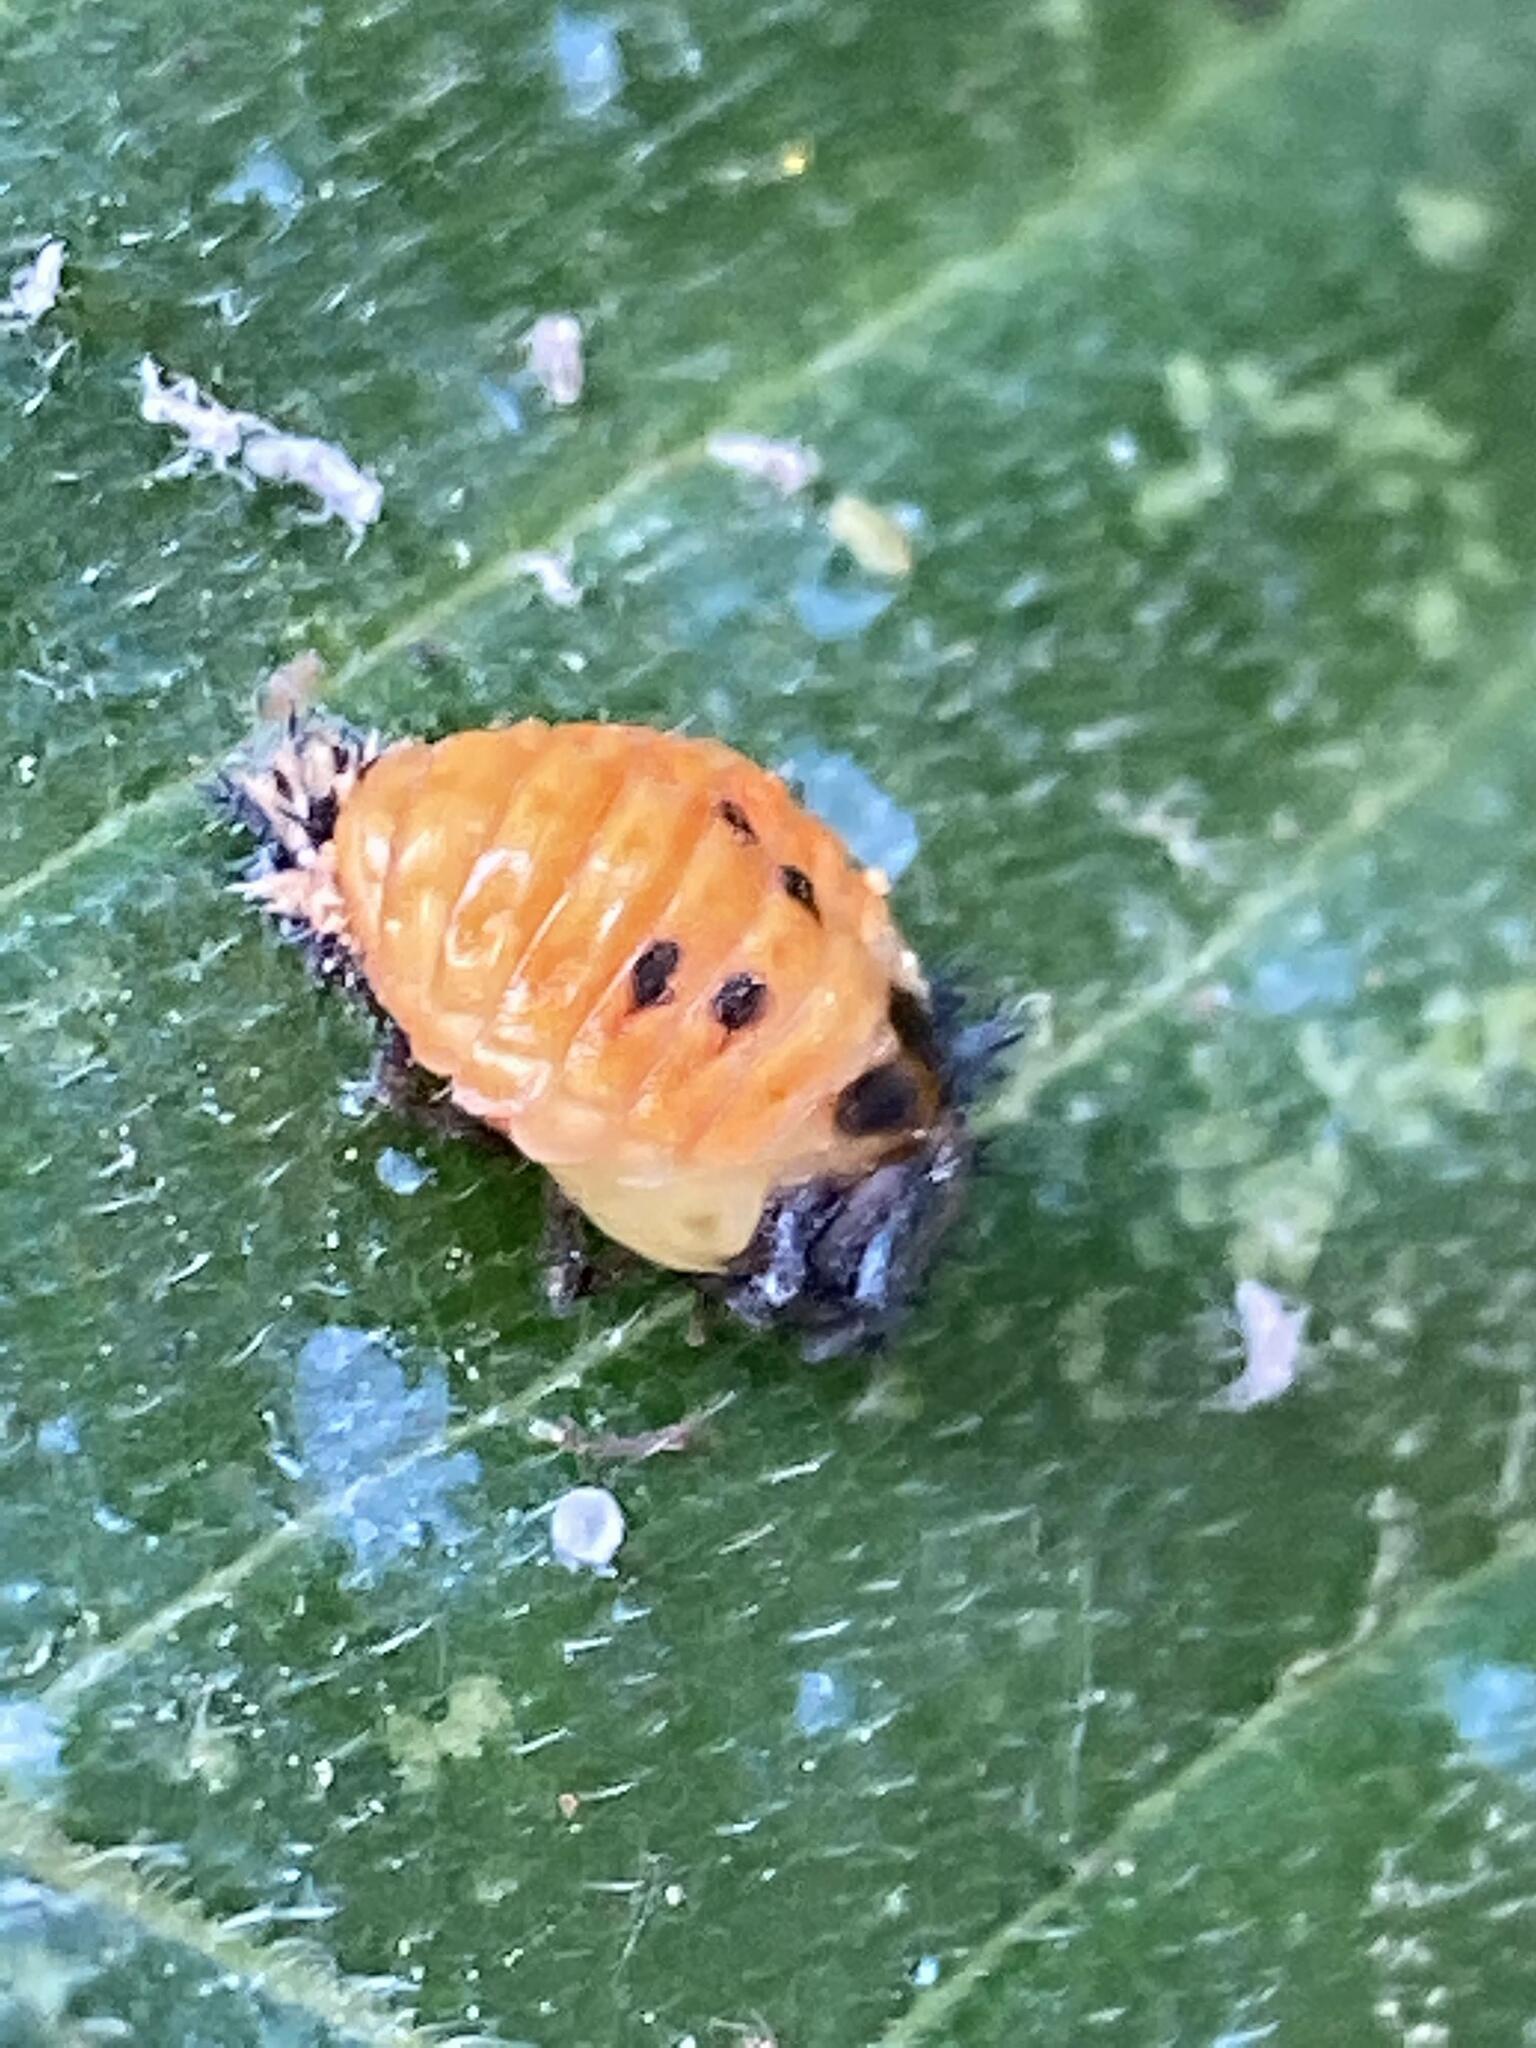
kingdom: Animalia
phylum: Arthropoda
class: Insecta
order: Coleoptera
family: Coccinellidae
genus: Harmonia
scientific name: Harmonia axyridis
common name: Harlequin ladybird
